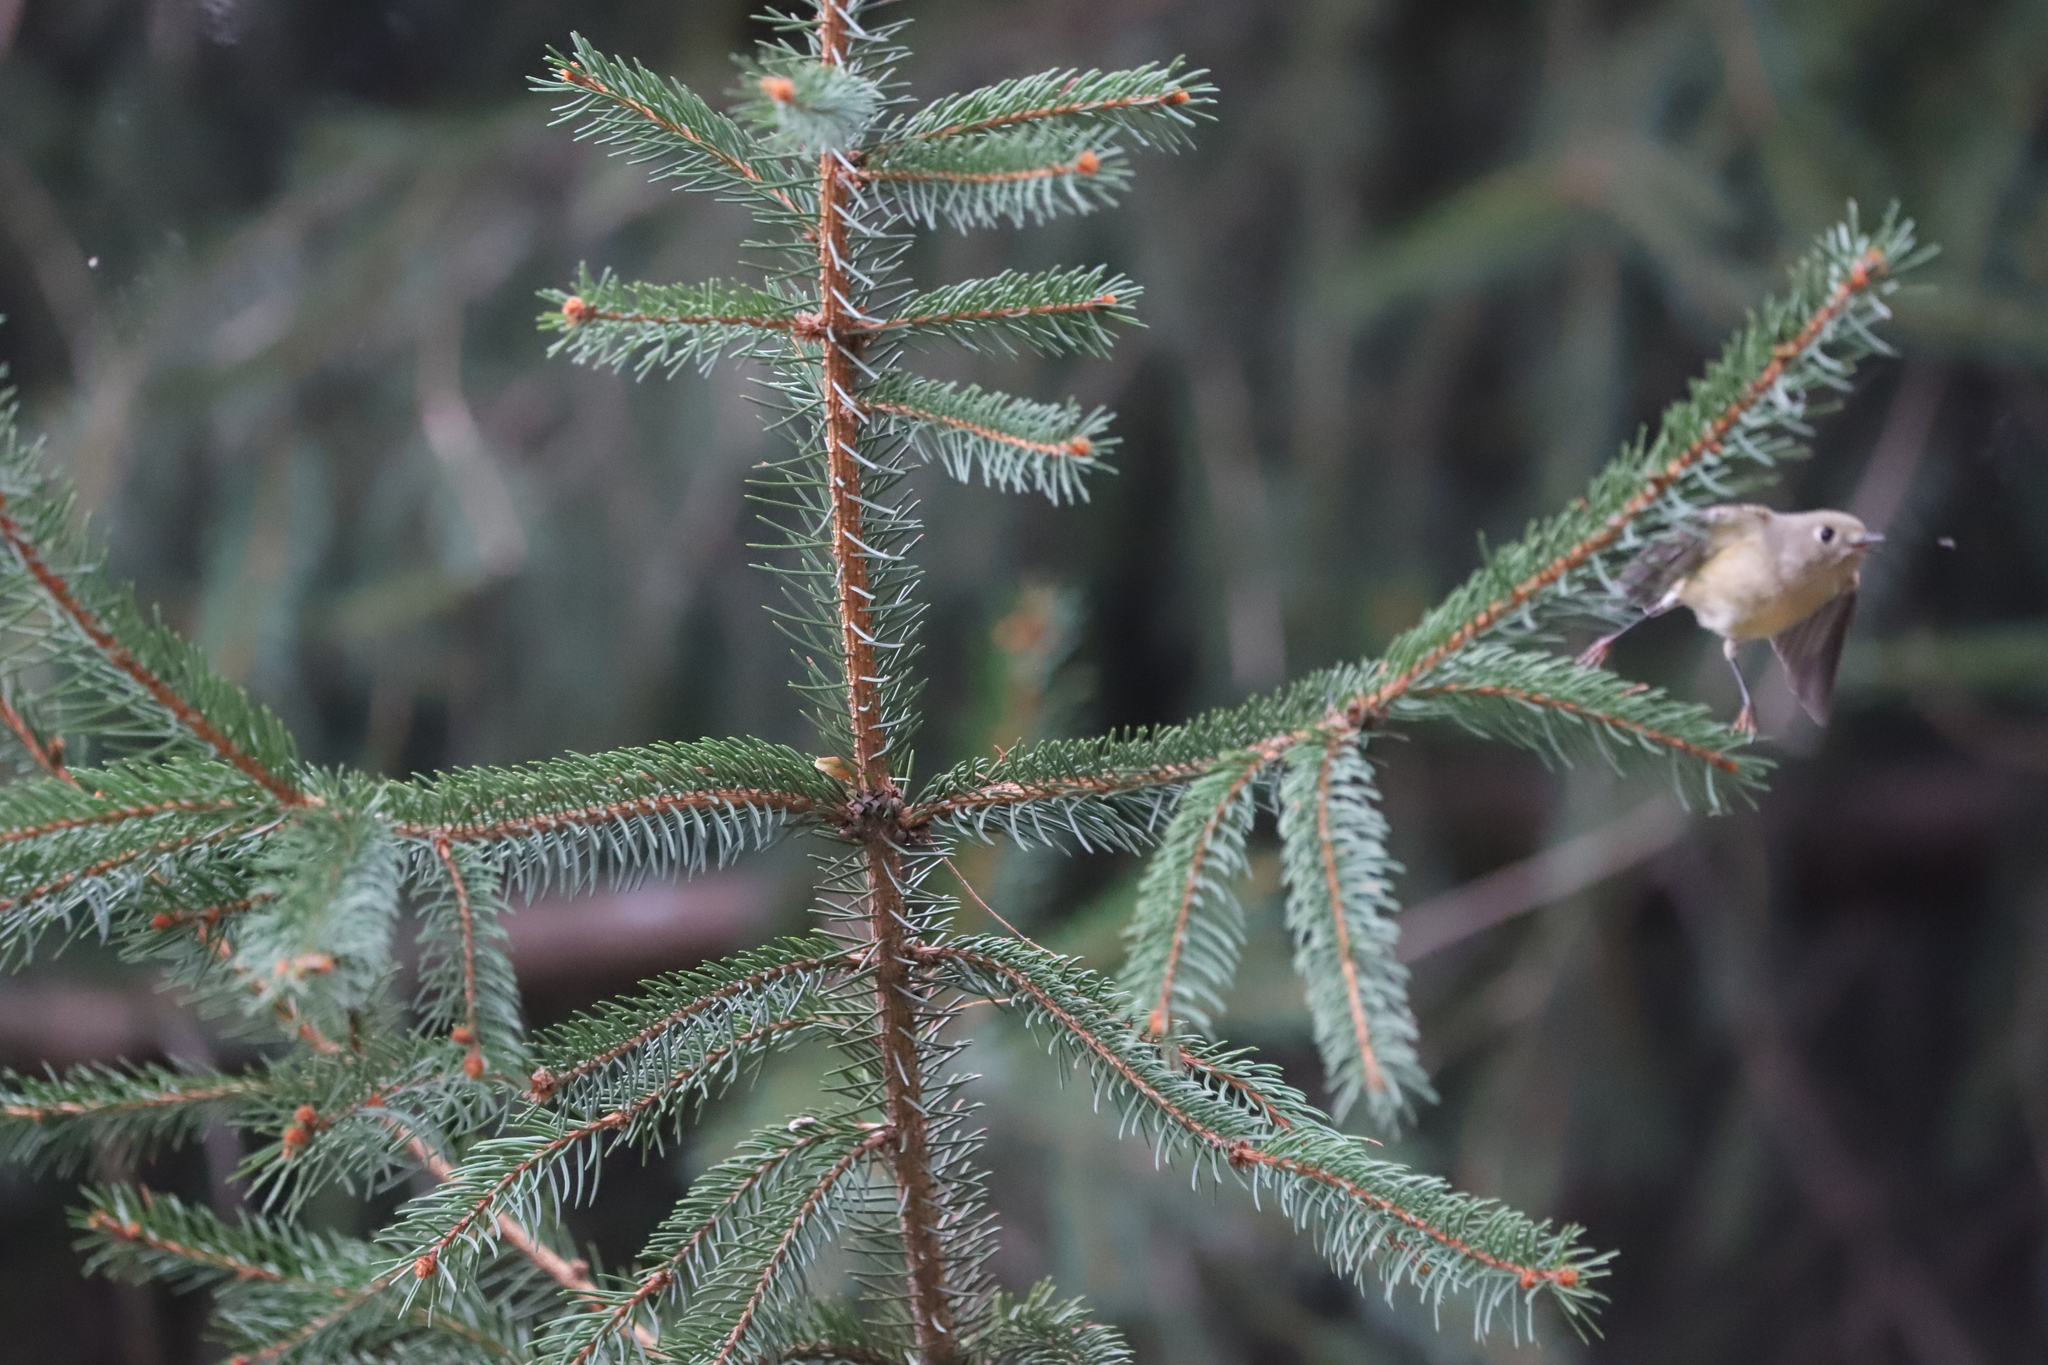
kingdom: Animalia
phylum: Chordata
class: Aves
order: Passeriformes
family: Regulidae
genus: Regulus
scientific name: Regulus calendula
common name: Ruby-crowned kinglet
